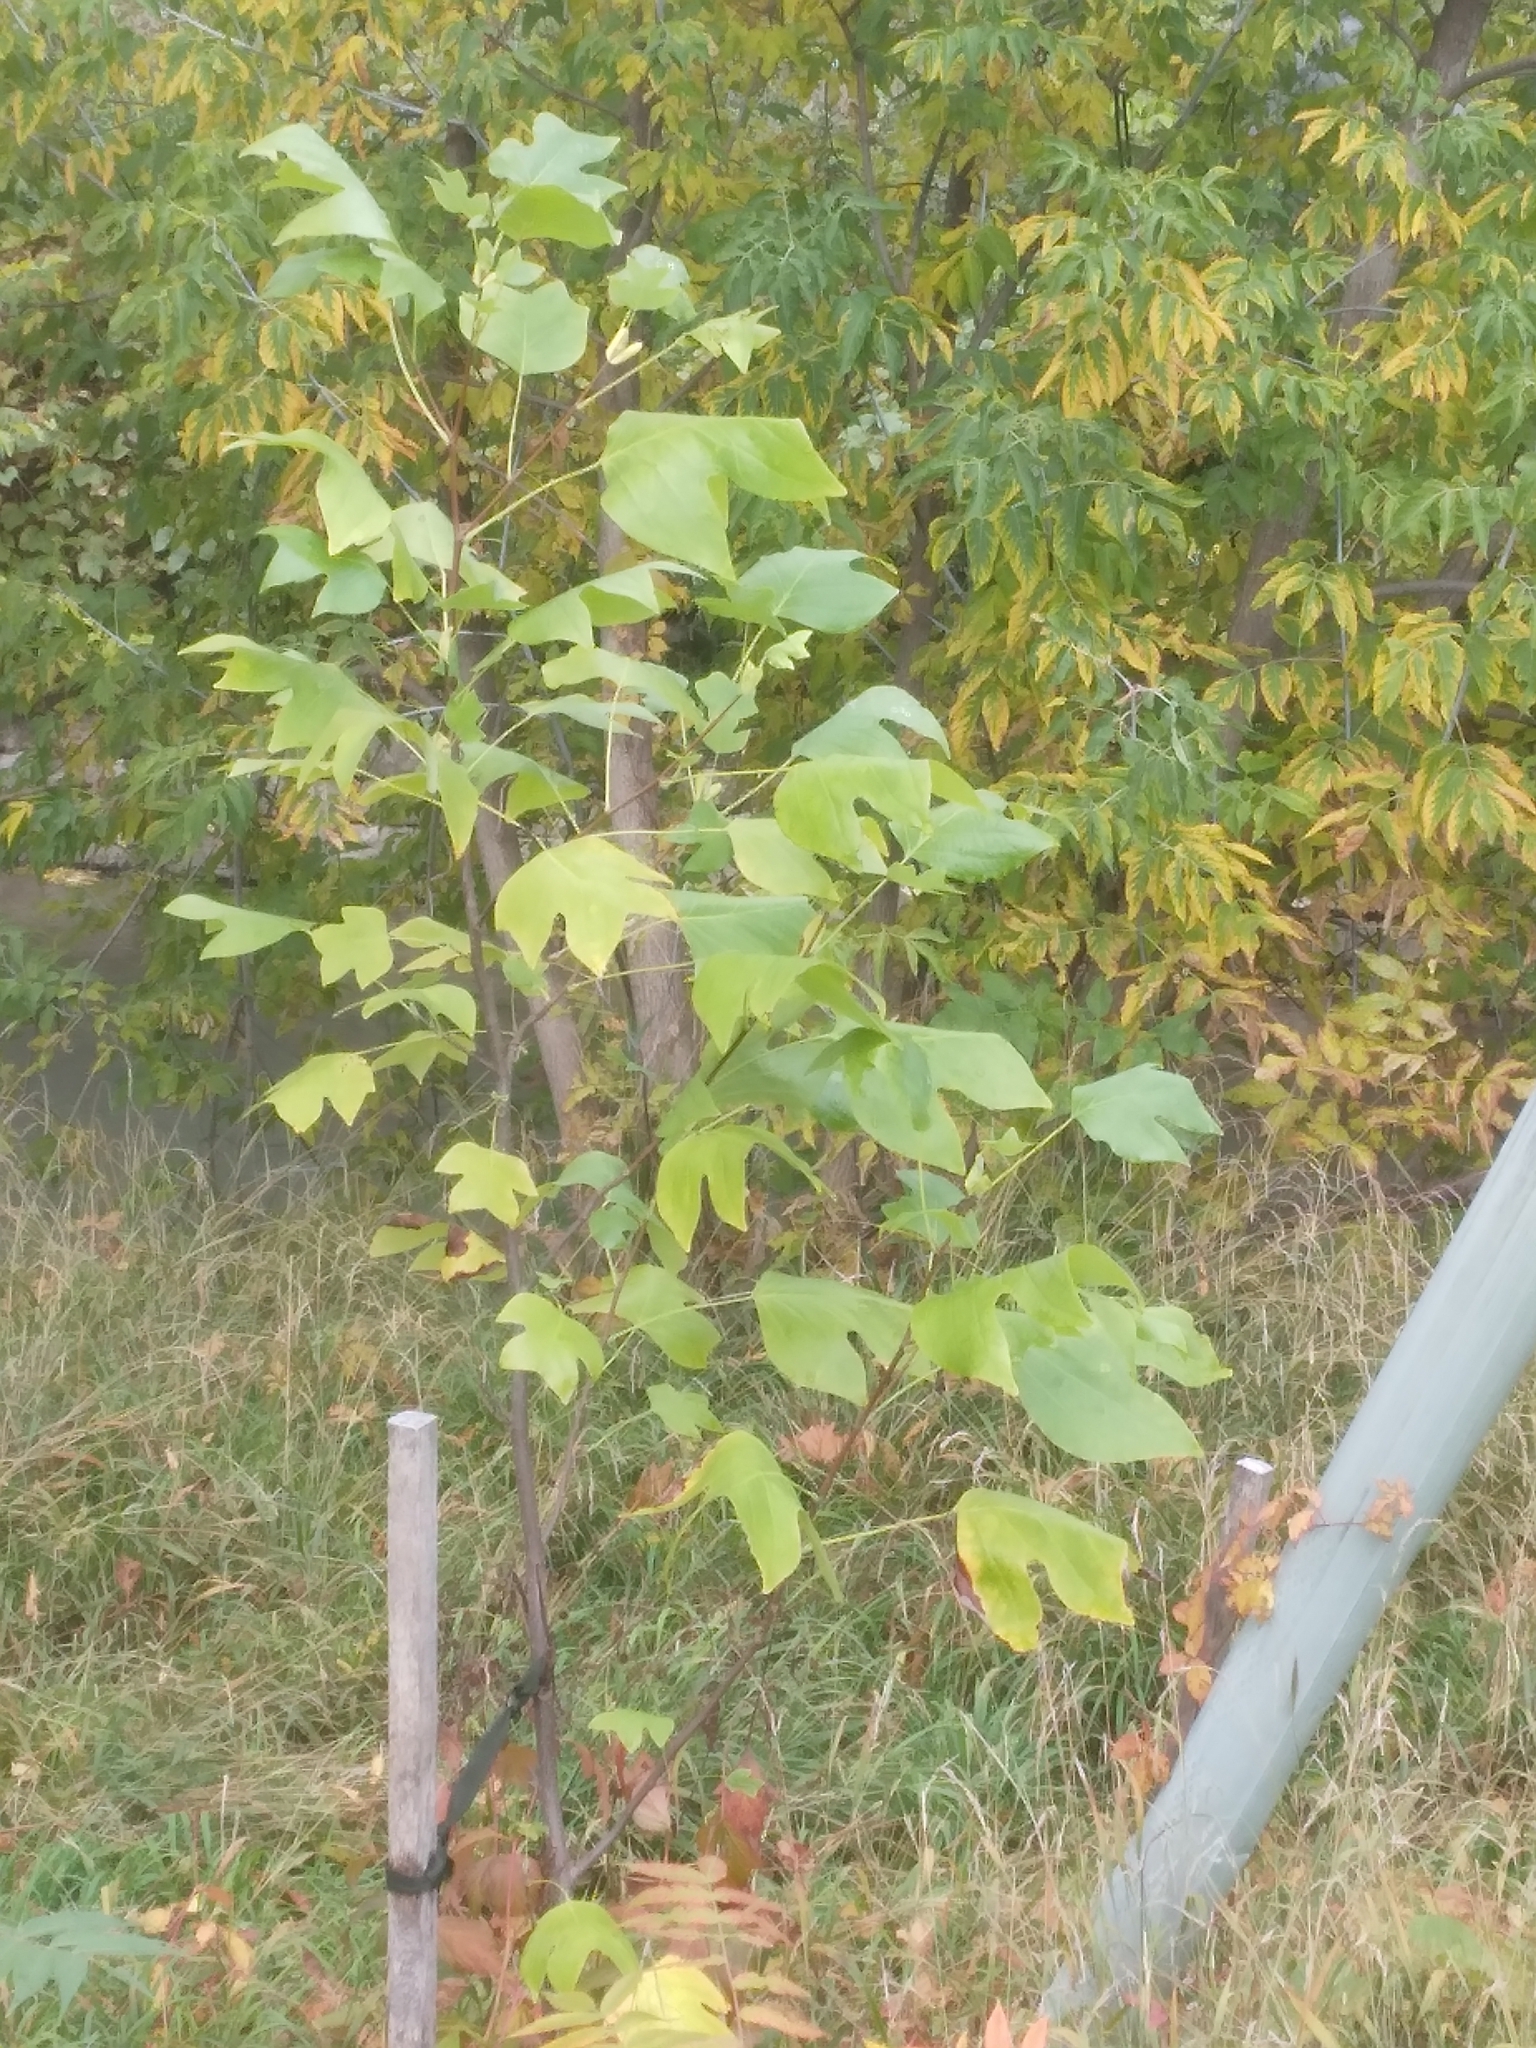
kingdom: Plantae
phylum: Tracheophyta
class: Magnoliopsida
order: Magnoliales
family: Magnoliaceae
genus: Liriodendron
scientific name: Liriodendron tulipifera
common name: Tulip tree
